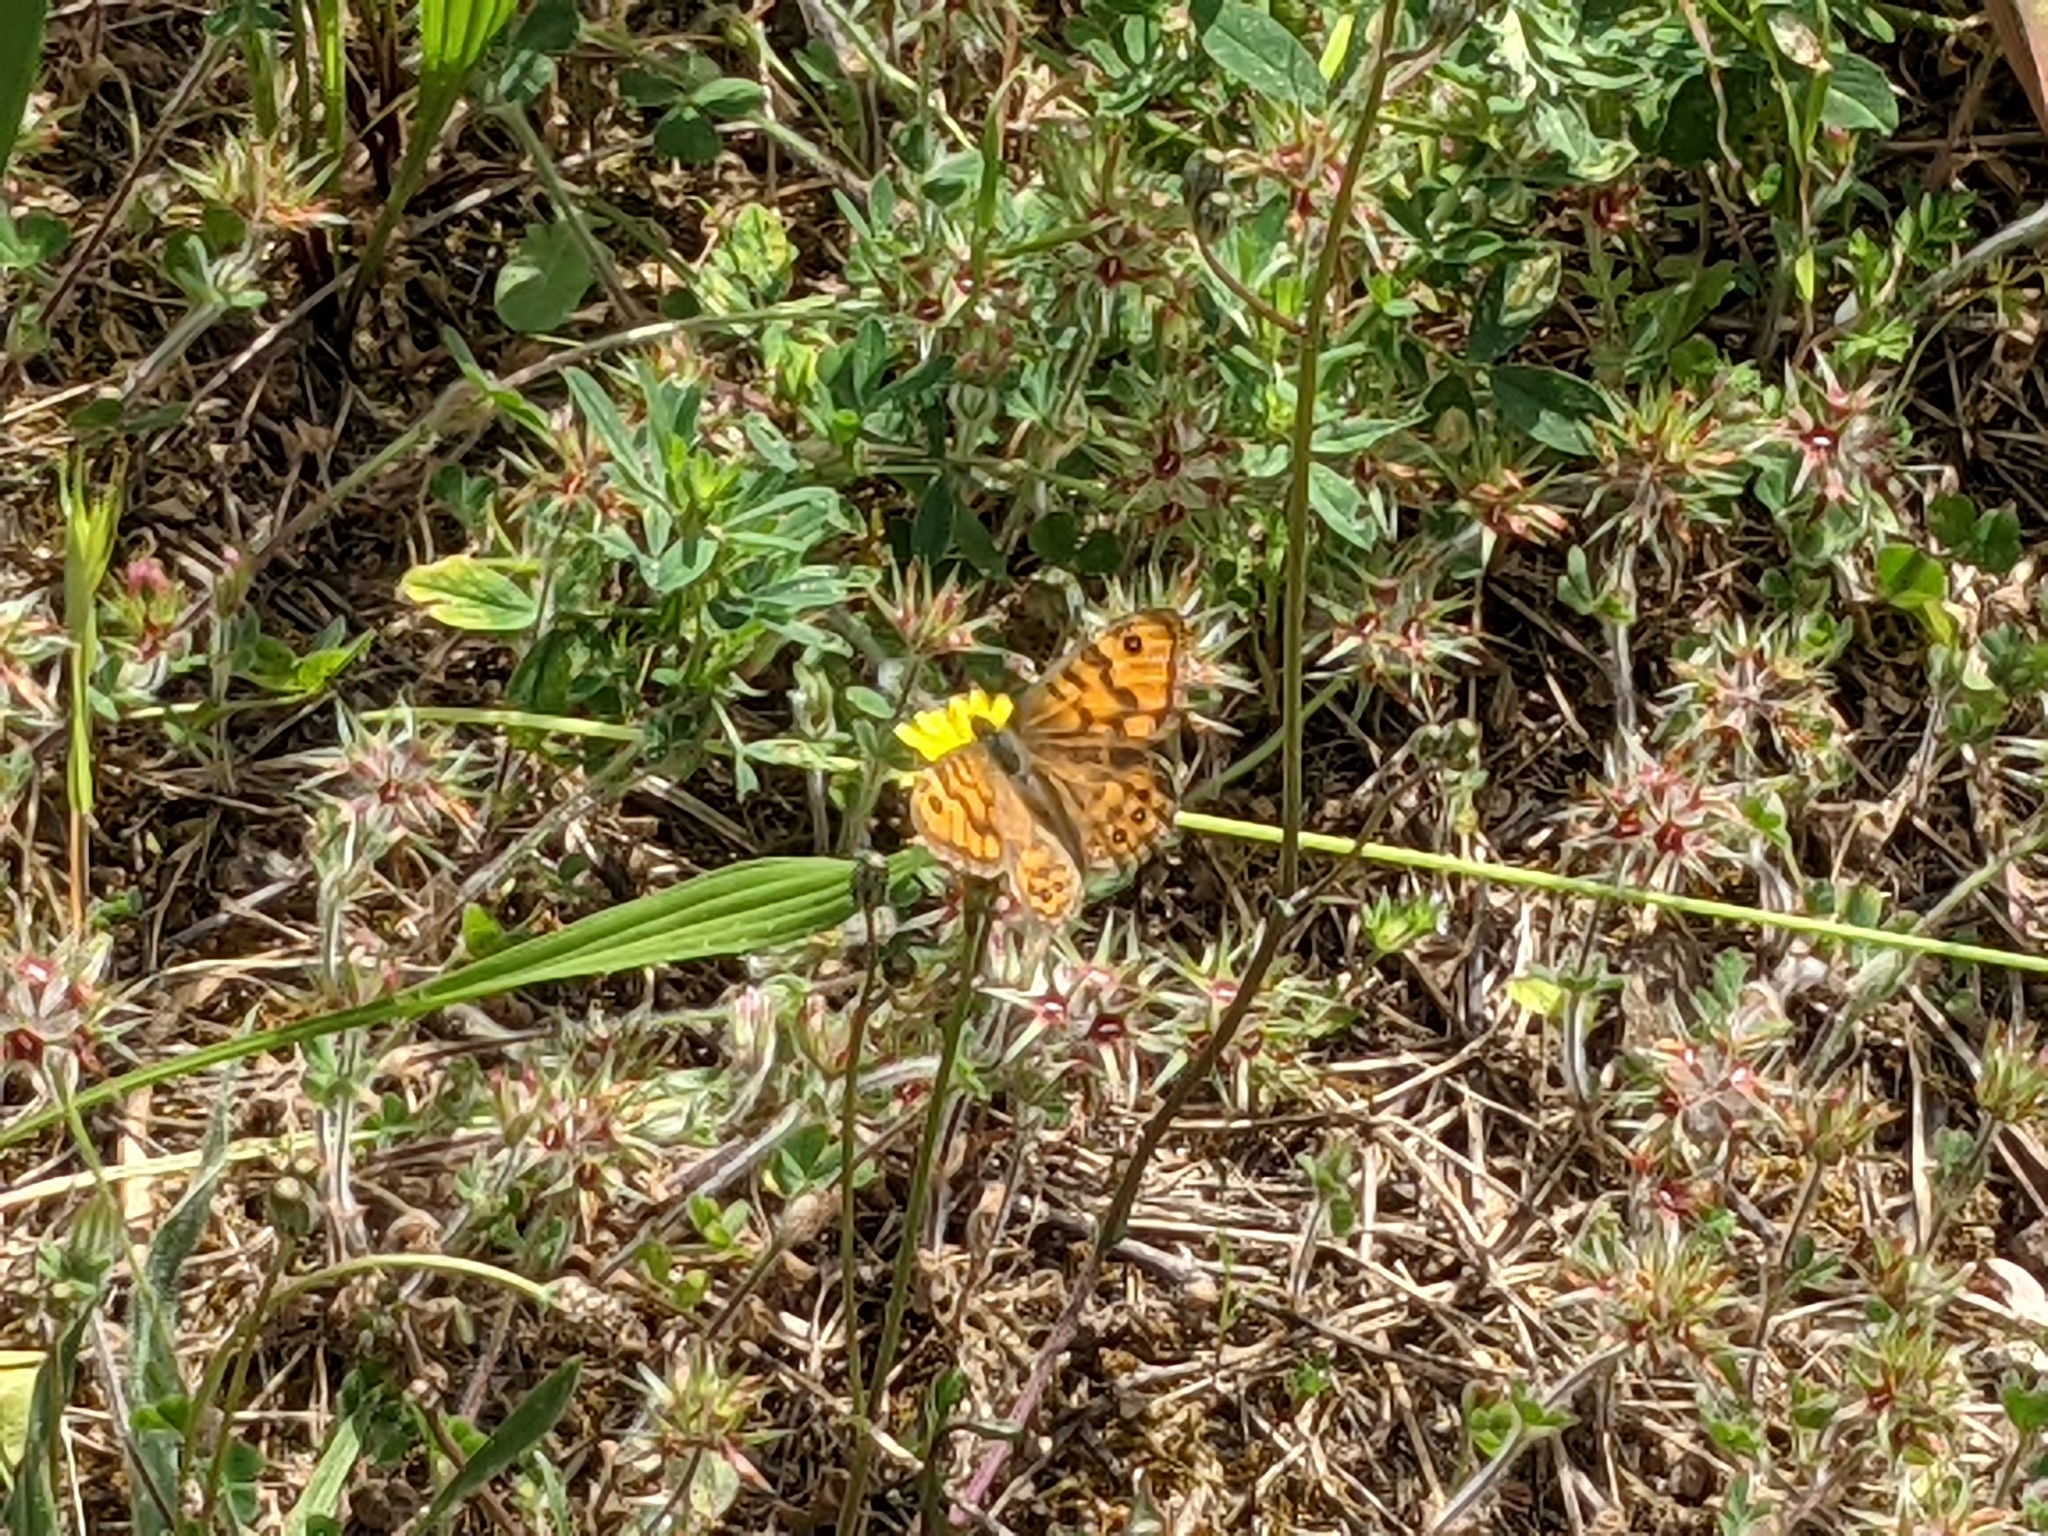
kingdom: Animalia
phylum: Arthropoda
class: Insecta
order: Lepidoptera
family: Nymphalidae
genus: Pararge
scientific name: Pararge Lasiommata megera
